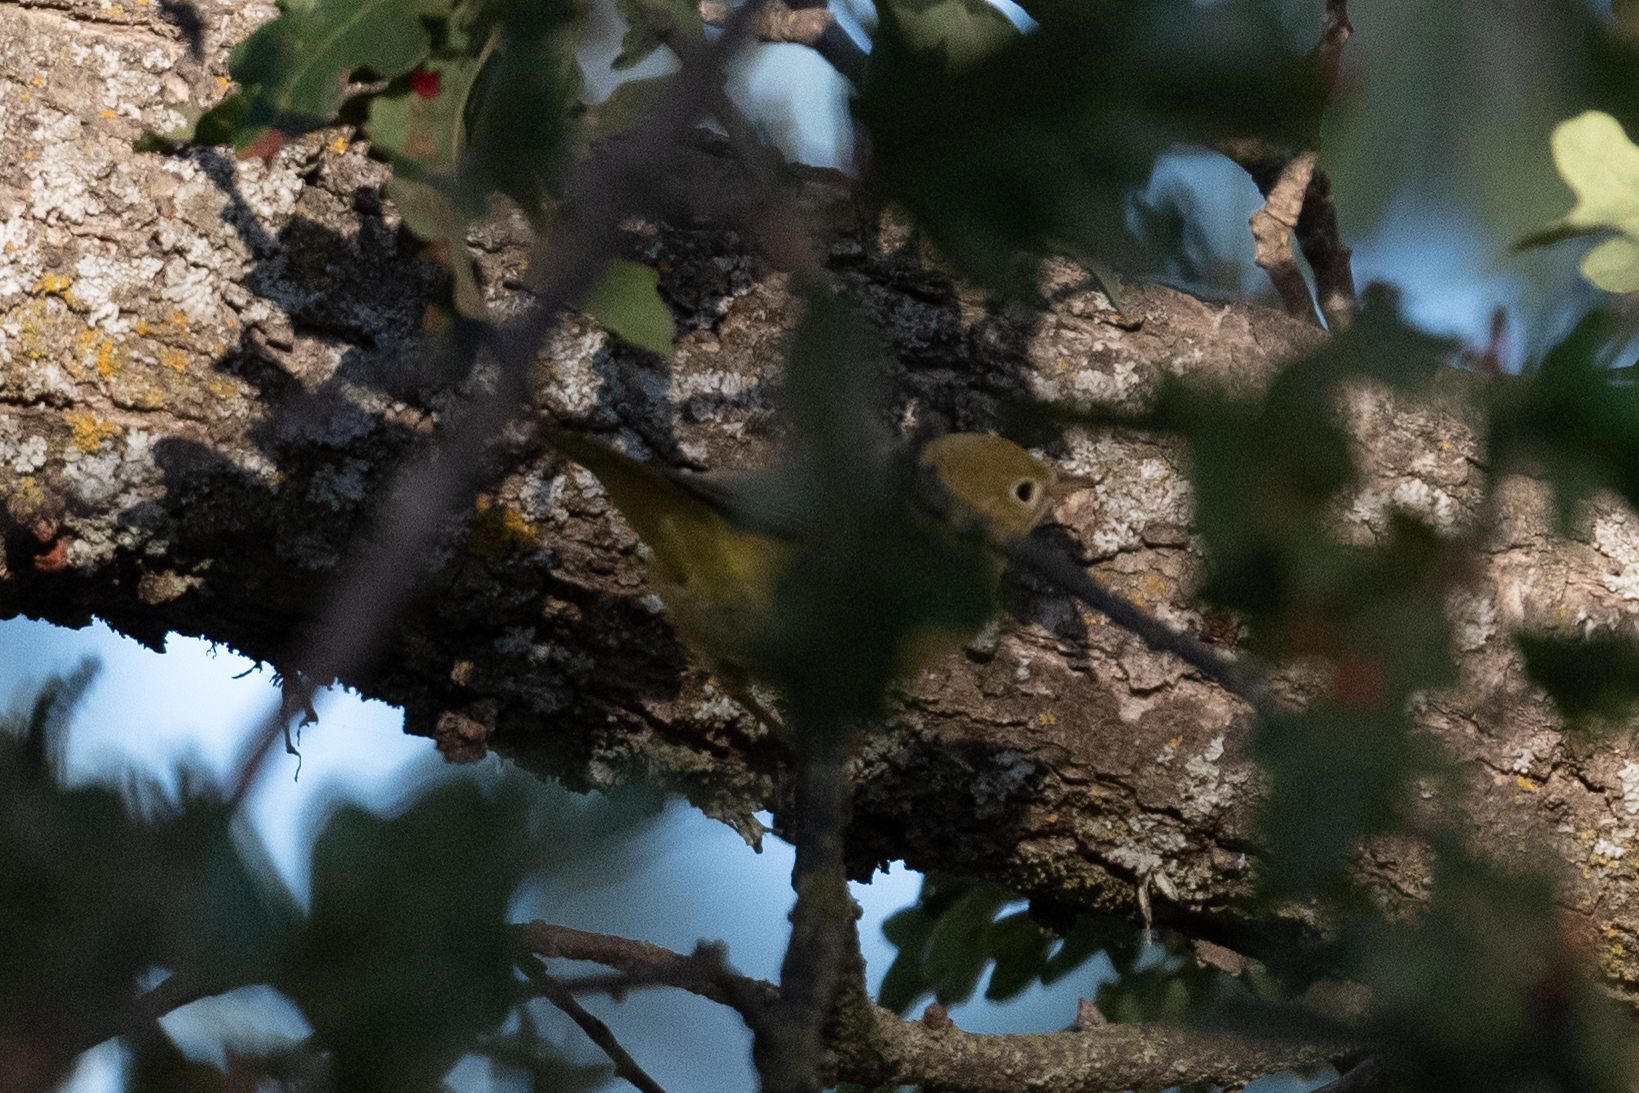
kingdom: Animalia
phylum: Chordata
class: Aves
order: Passeriformes
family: Parulidae
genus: Setophaga
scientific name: Setophaga petechia
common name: Yellow warbler
